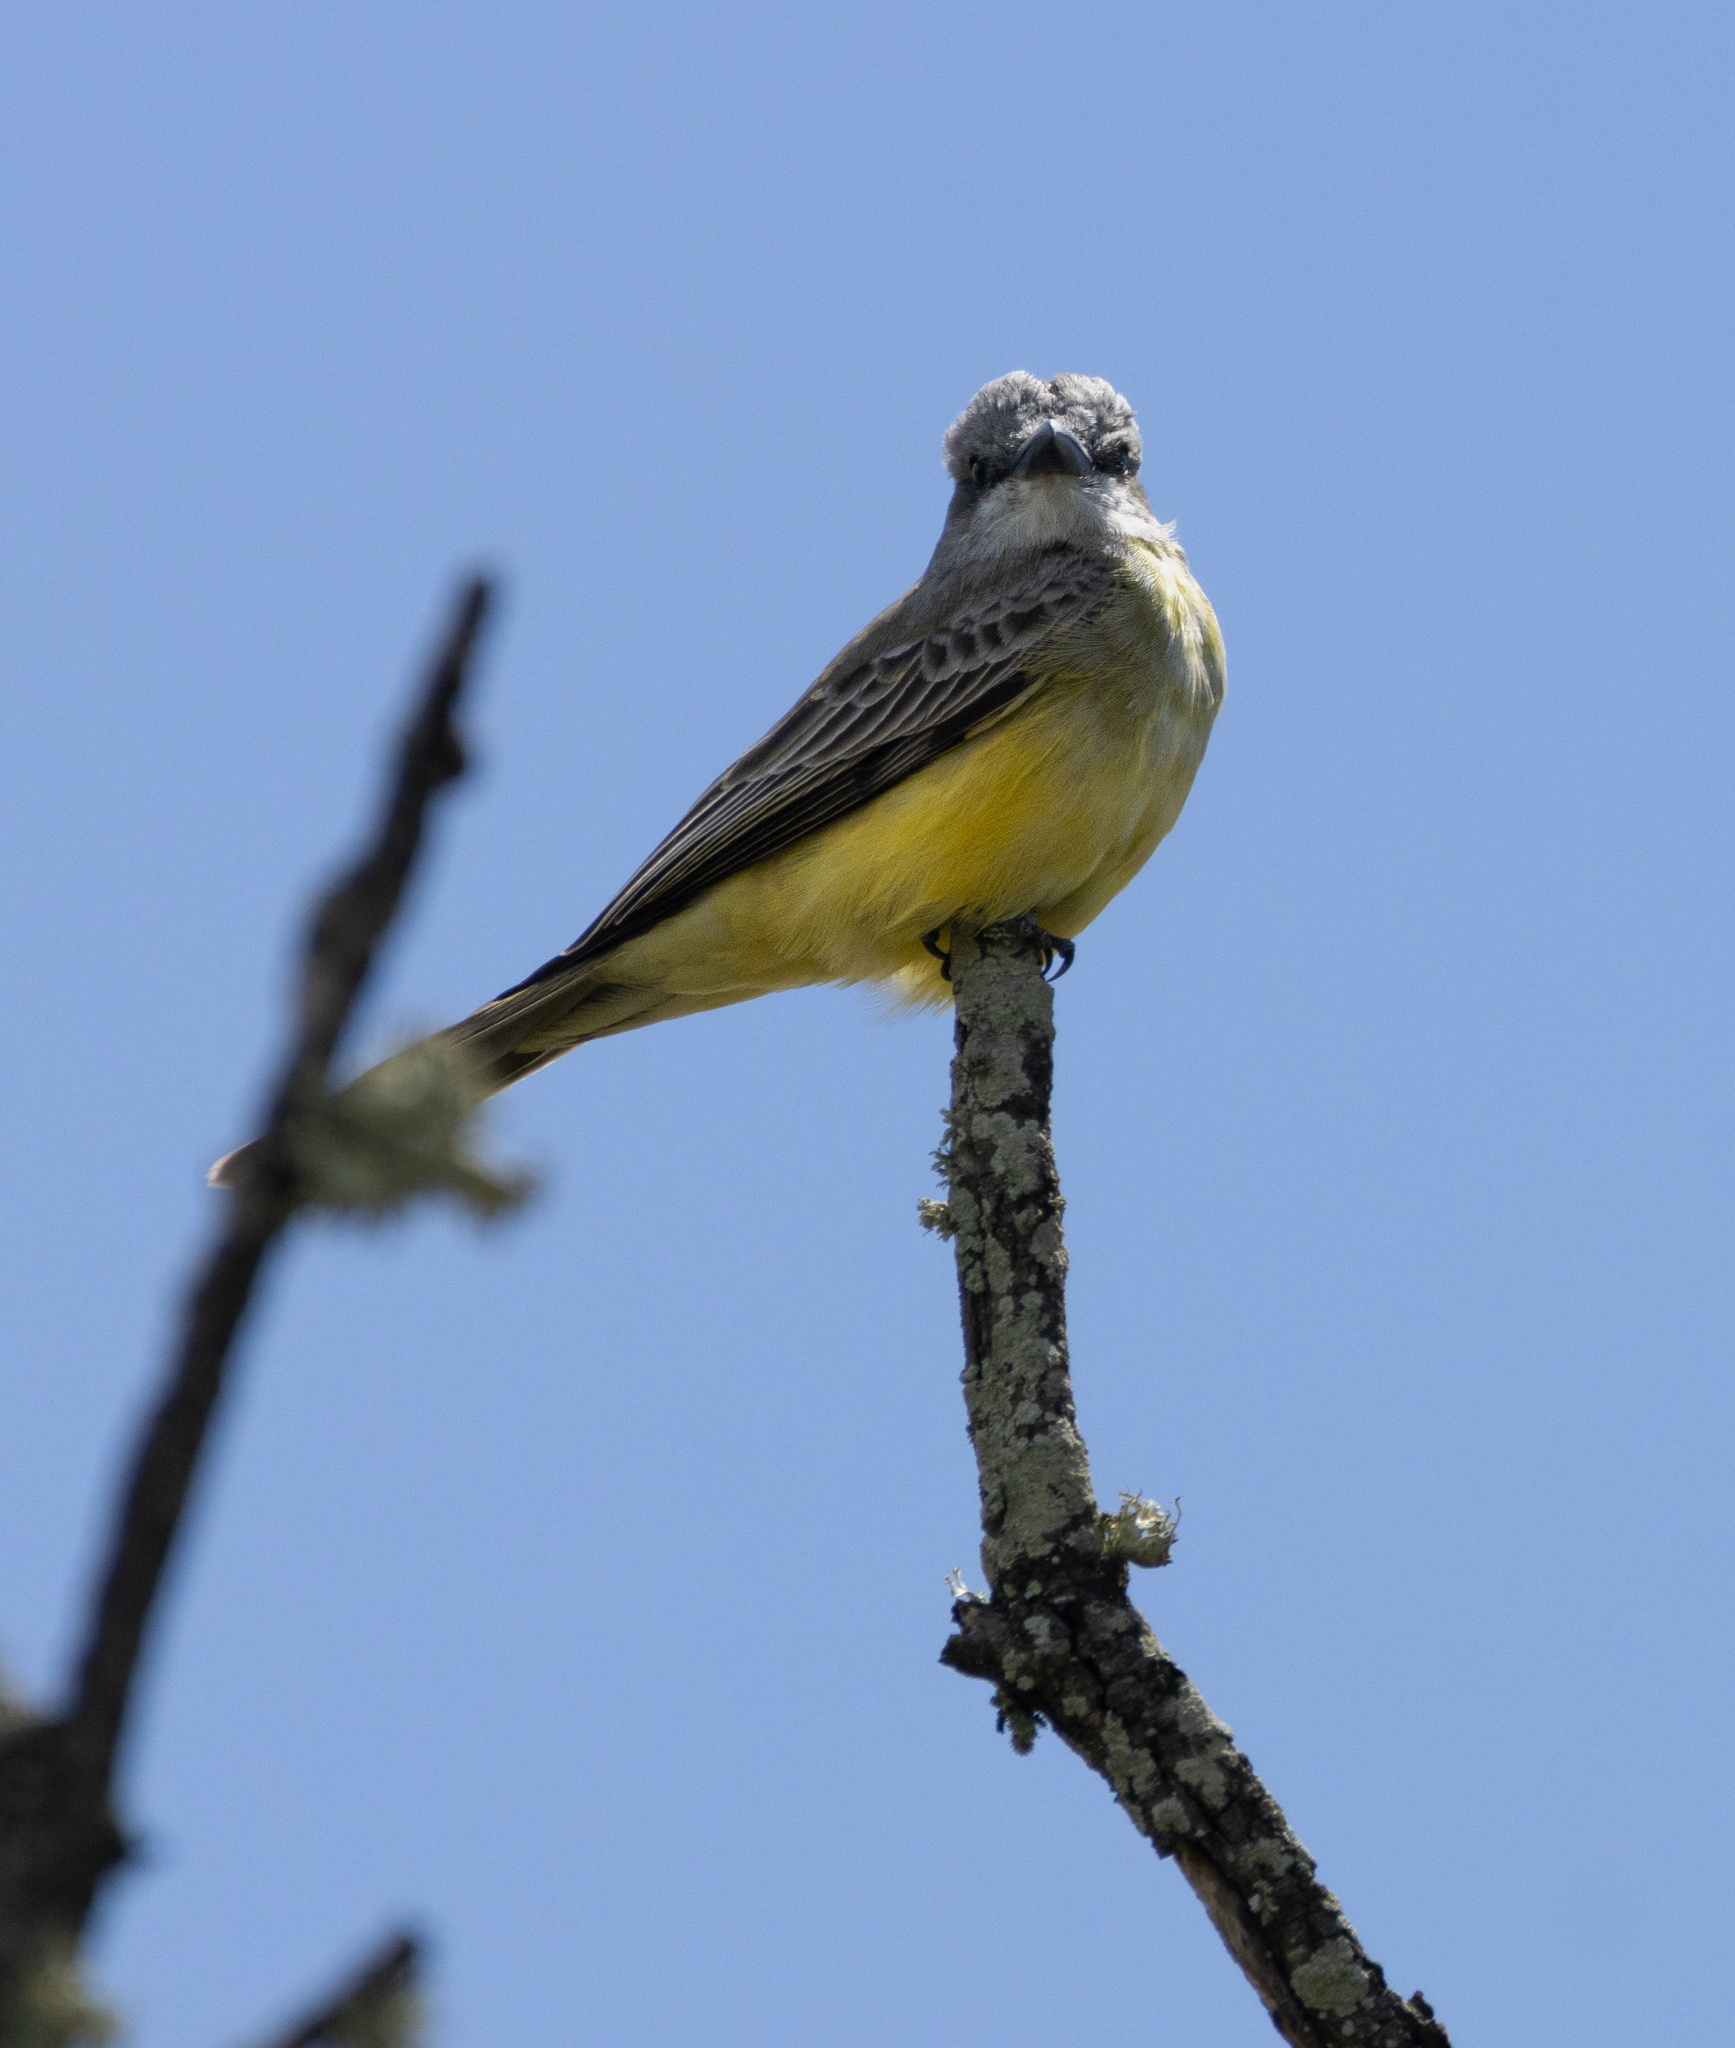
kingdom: Animalia
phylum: Chordata
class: Aves
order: Passeriformes
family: Tyrannidae
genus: Tyrannus
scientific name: Tyrannus vociferans
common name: Cassin's kingbird
